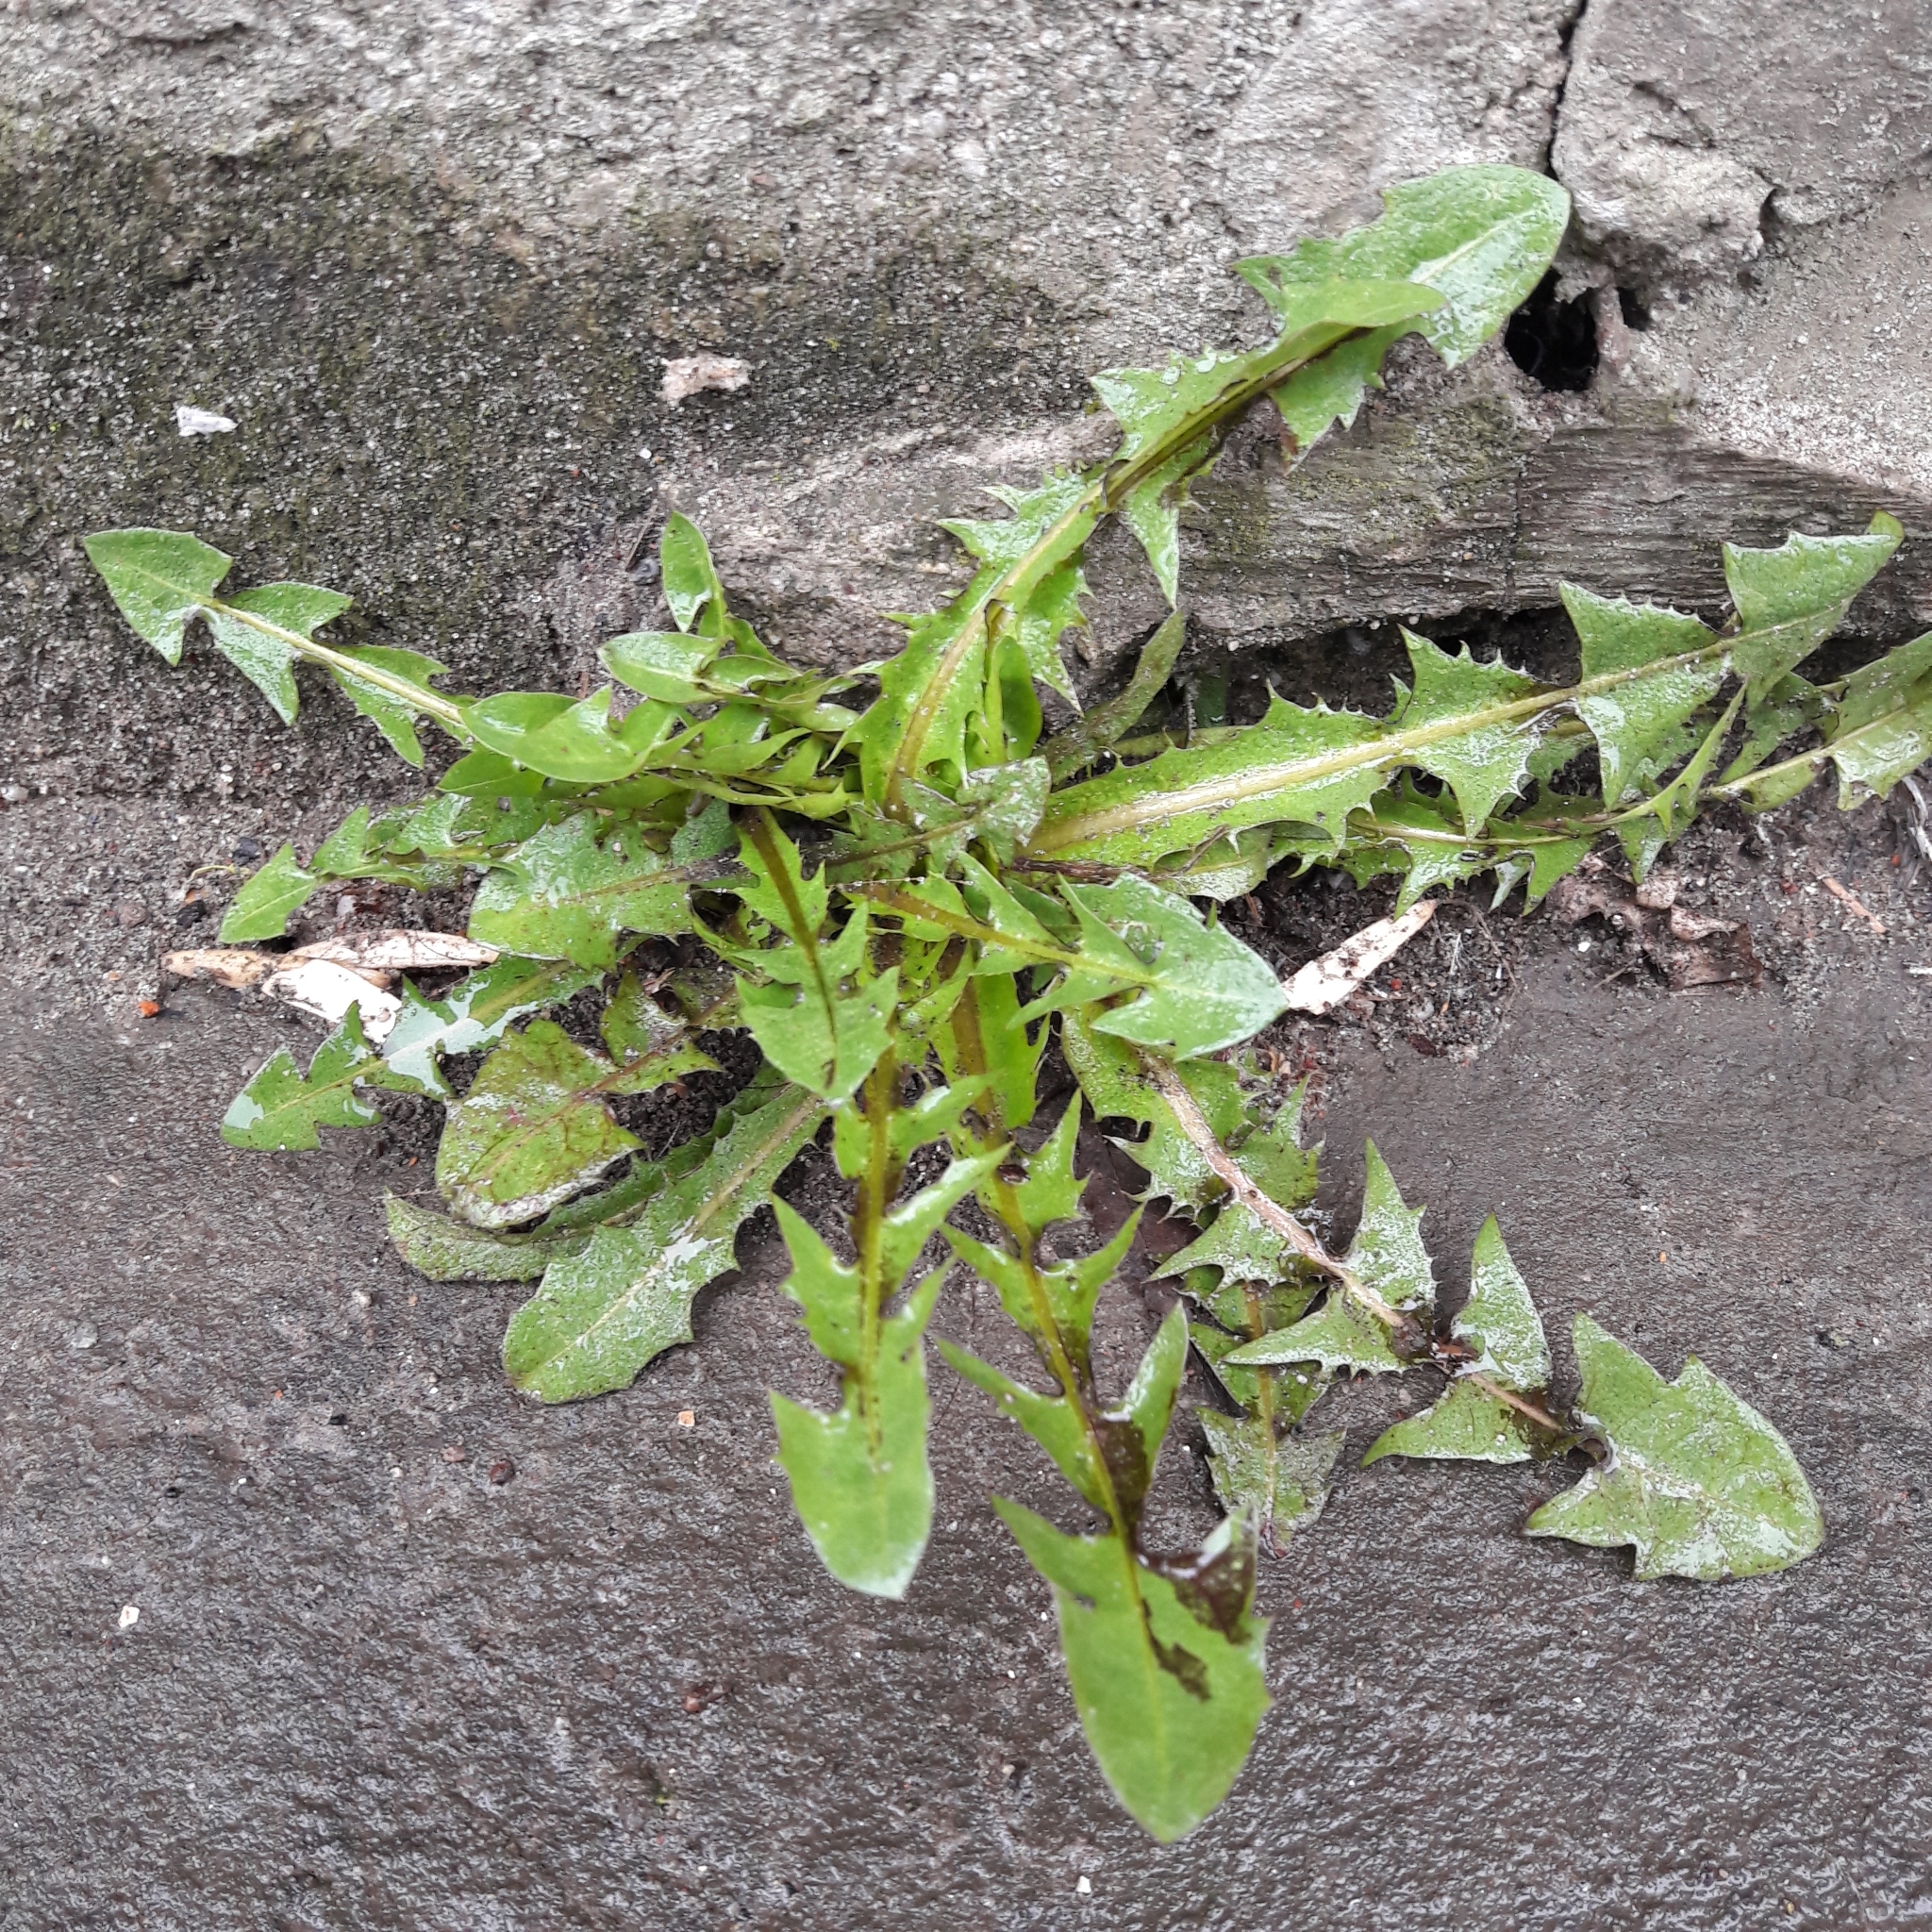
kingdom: Plantae
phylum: Tracheophyta
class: Magnoliopsida
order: Asterales
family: Asteraceae
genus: Taraxacum
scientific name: Taraxacum officinale
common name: Common dandelion
